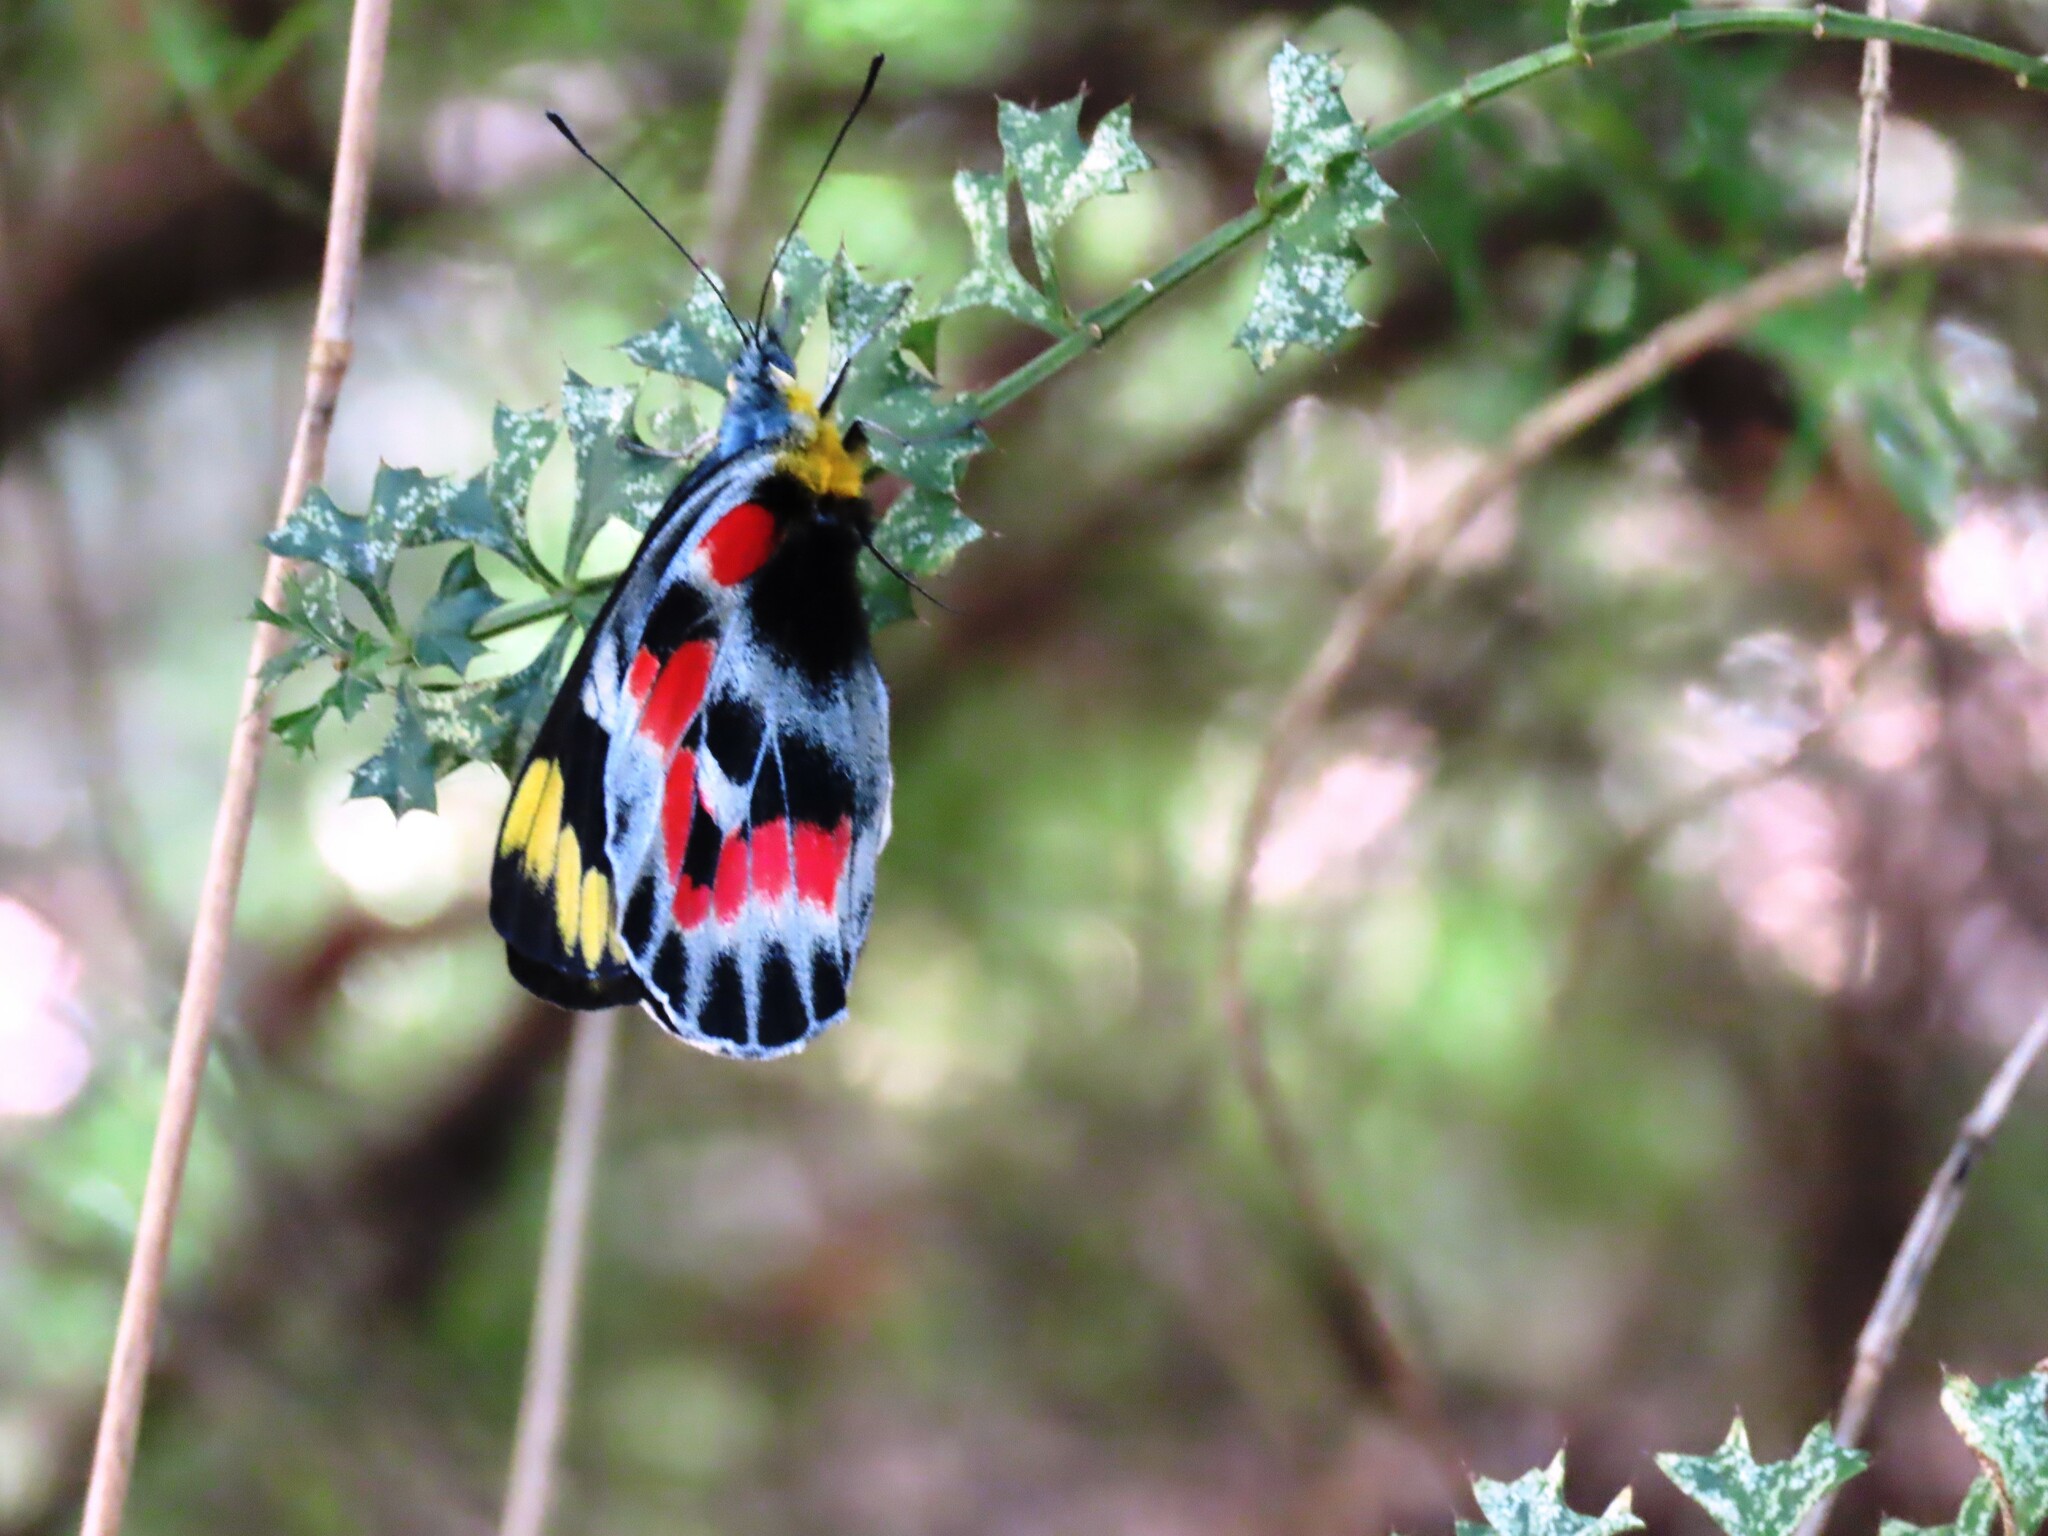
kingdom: Animalia
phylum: Arthropoda
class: Insecta
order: Lepidoptera
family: Pieridae
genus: Delias
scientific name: Delias harpalyce
